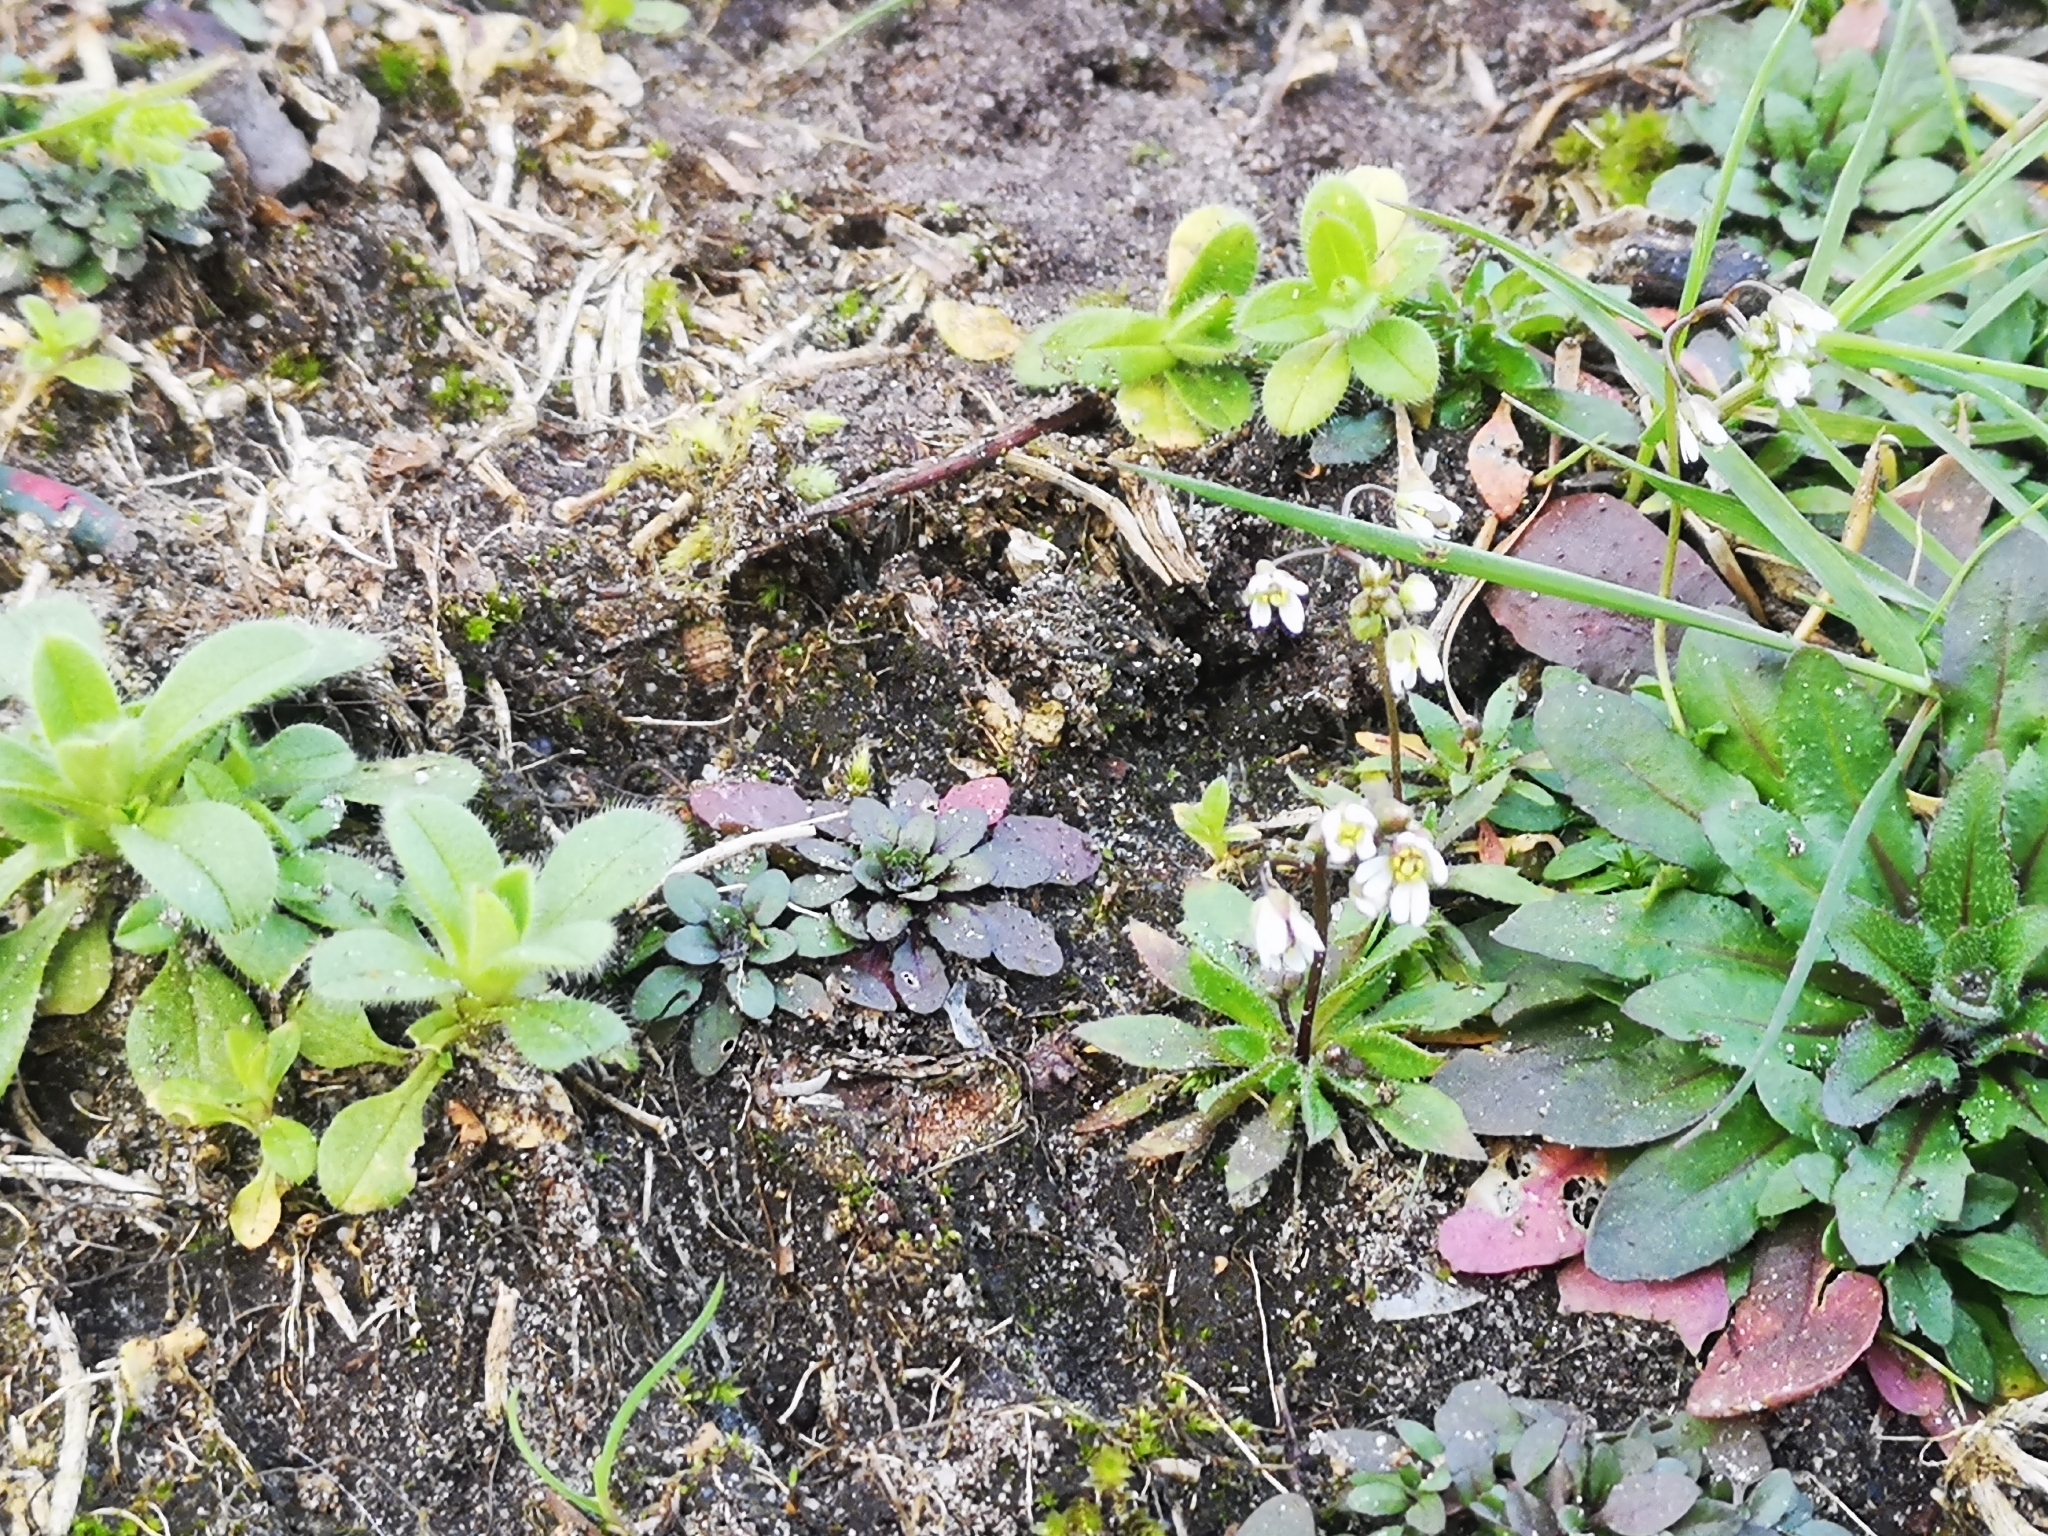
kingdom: Plantae
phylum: Tracheophyta
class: Magnoliopsida
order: Brassicales
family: Brassicaceae
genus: Draba
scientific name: Draba verna
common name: Spring draba
